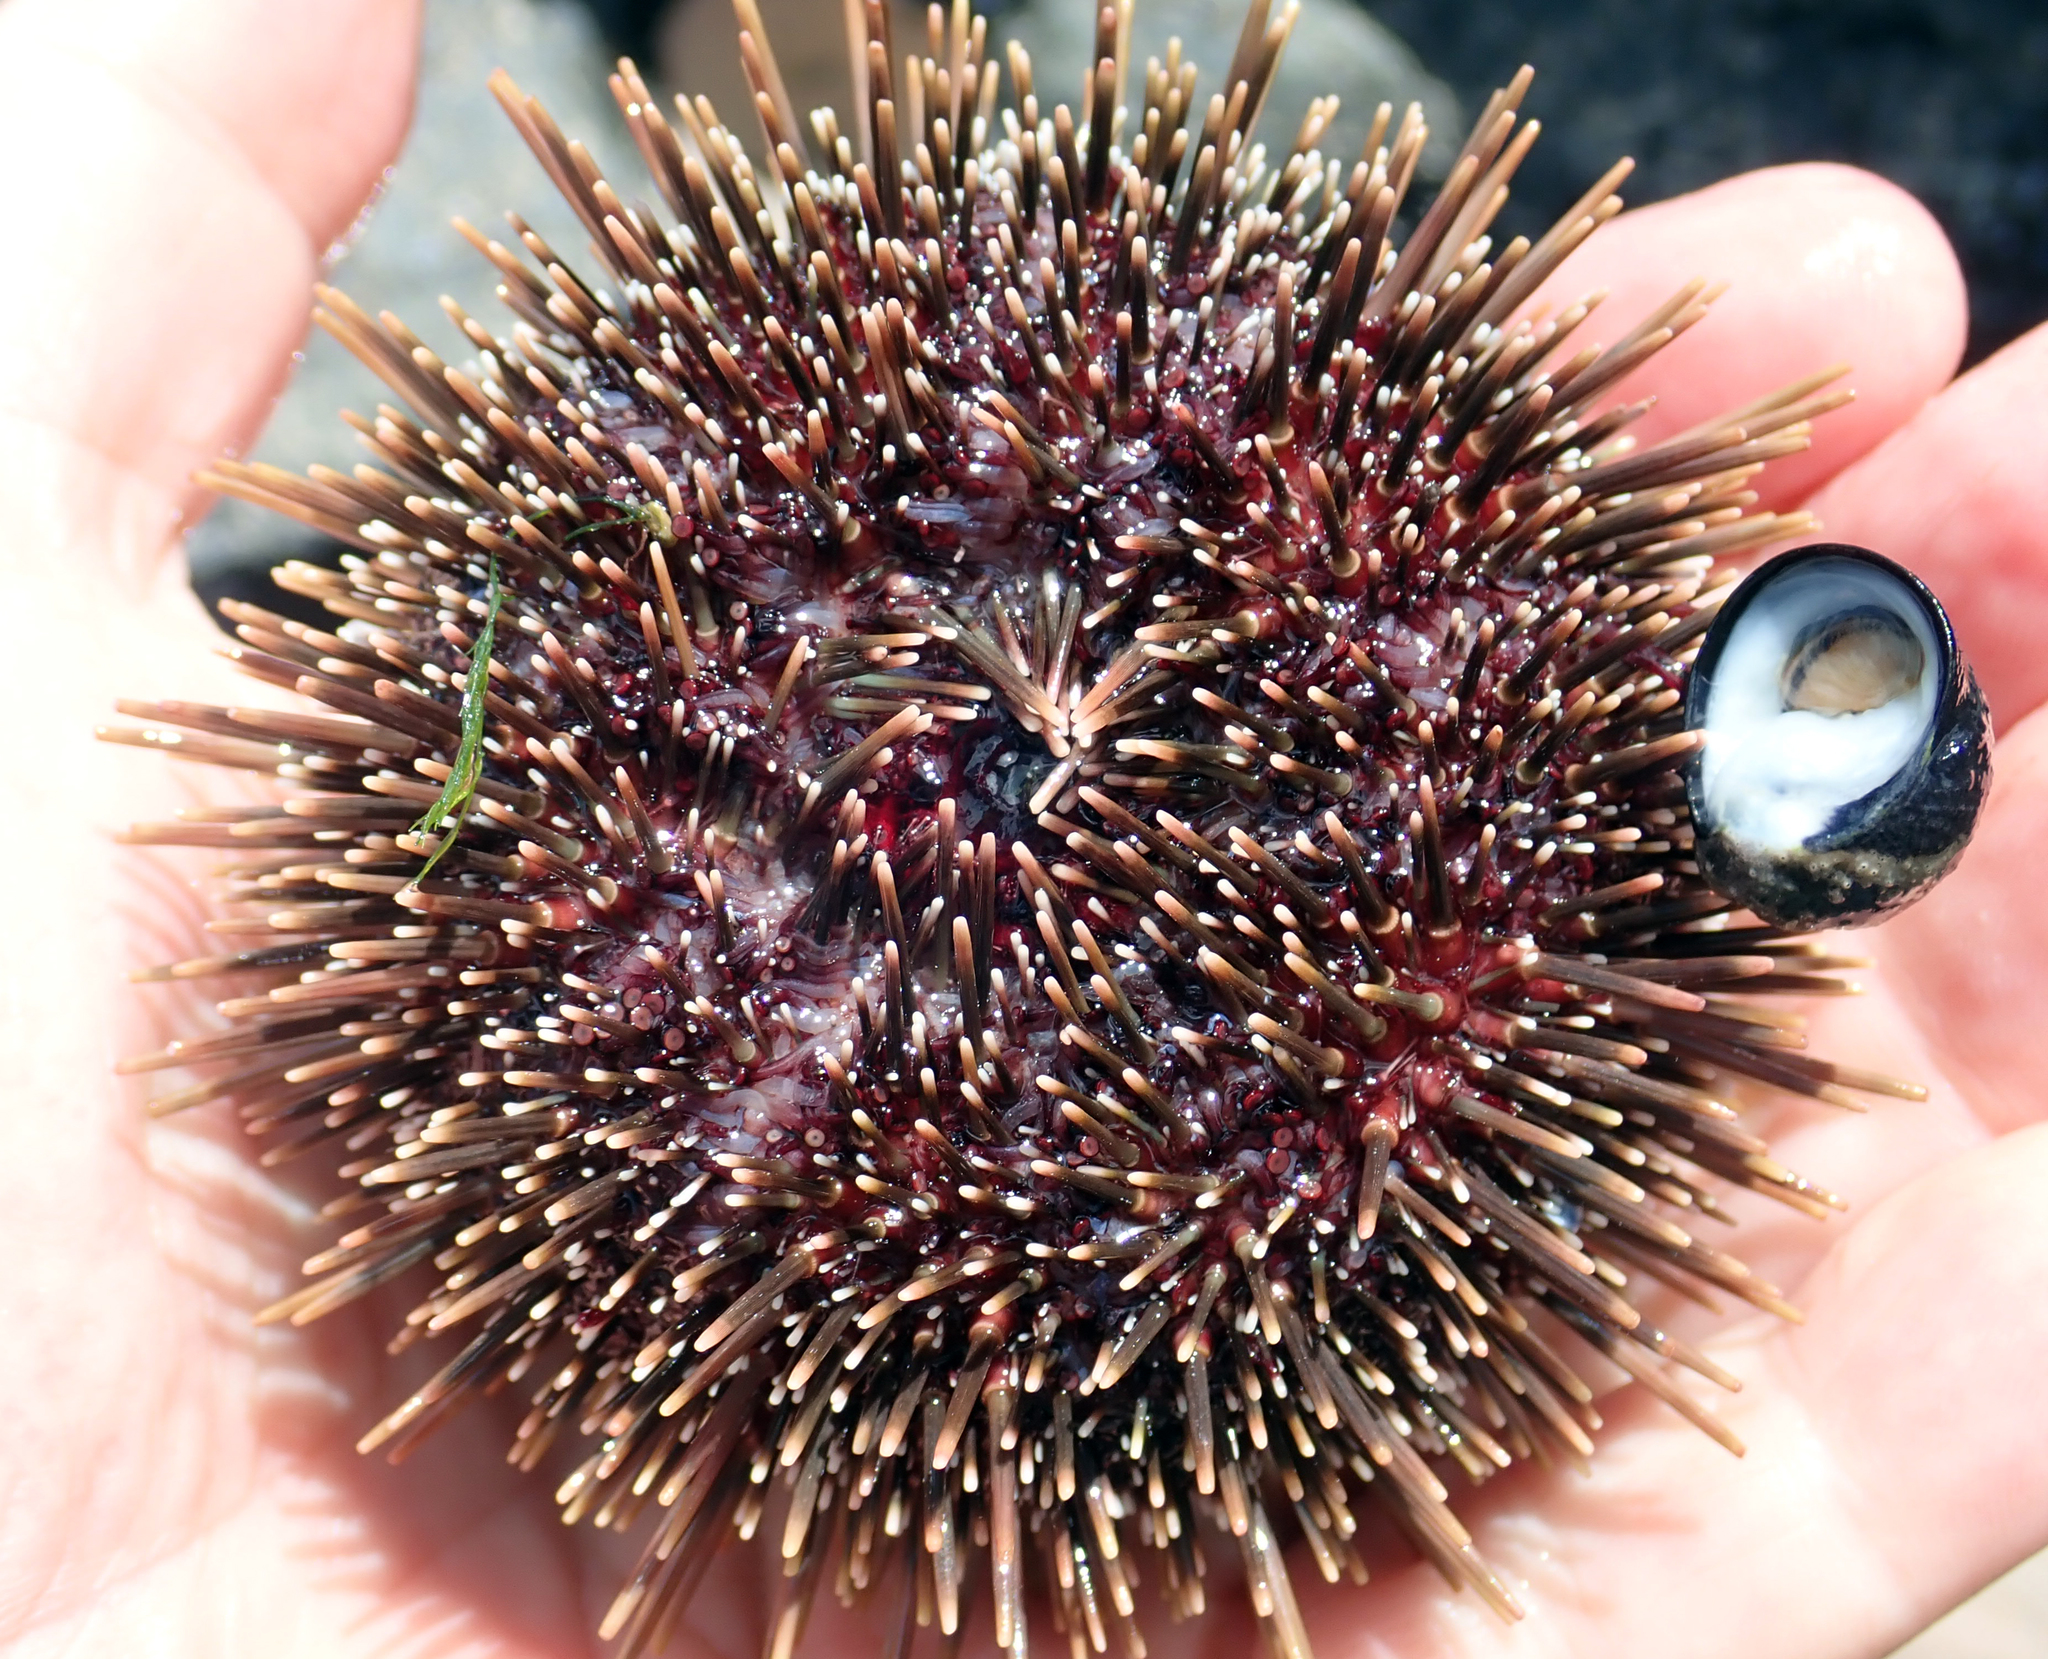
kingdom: Animalia
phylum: Echinodermata
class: Echinoidea
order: Camarodonta
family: Echinometridae
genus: Evechinus
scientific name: Evechinus chloroticus
